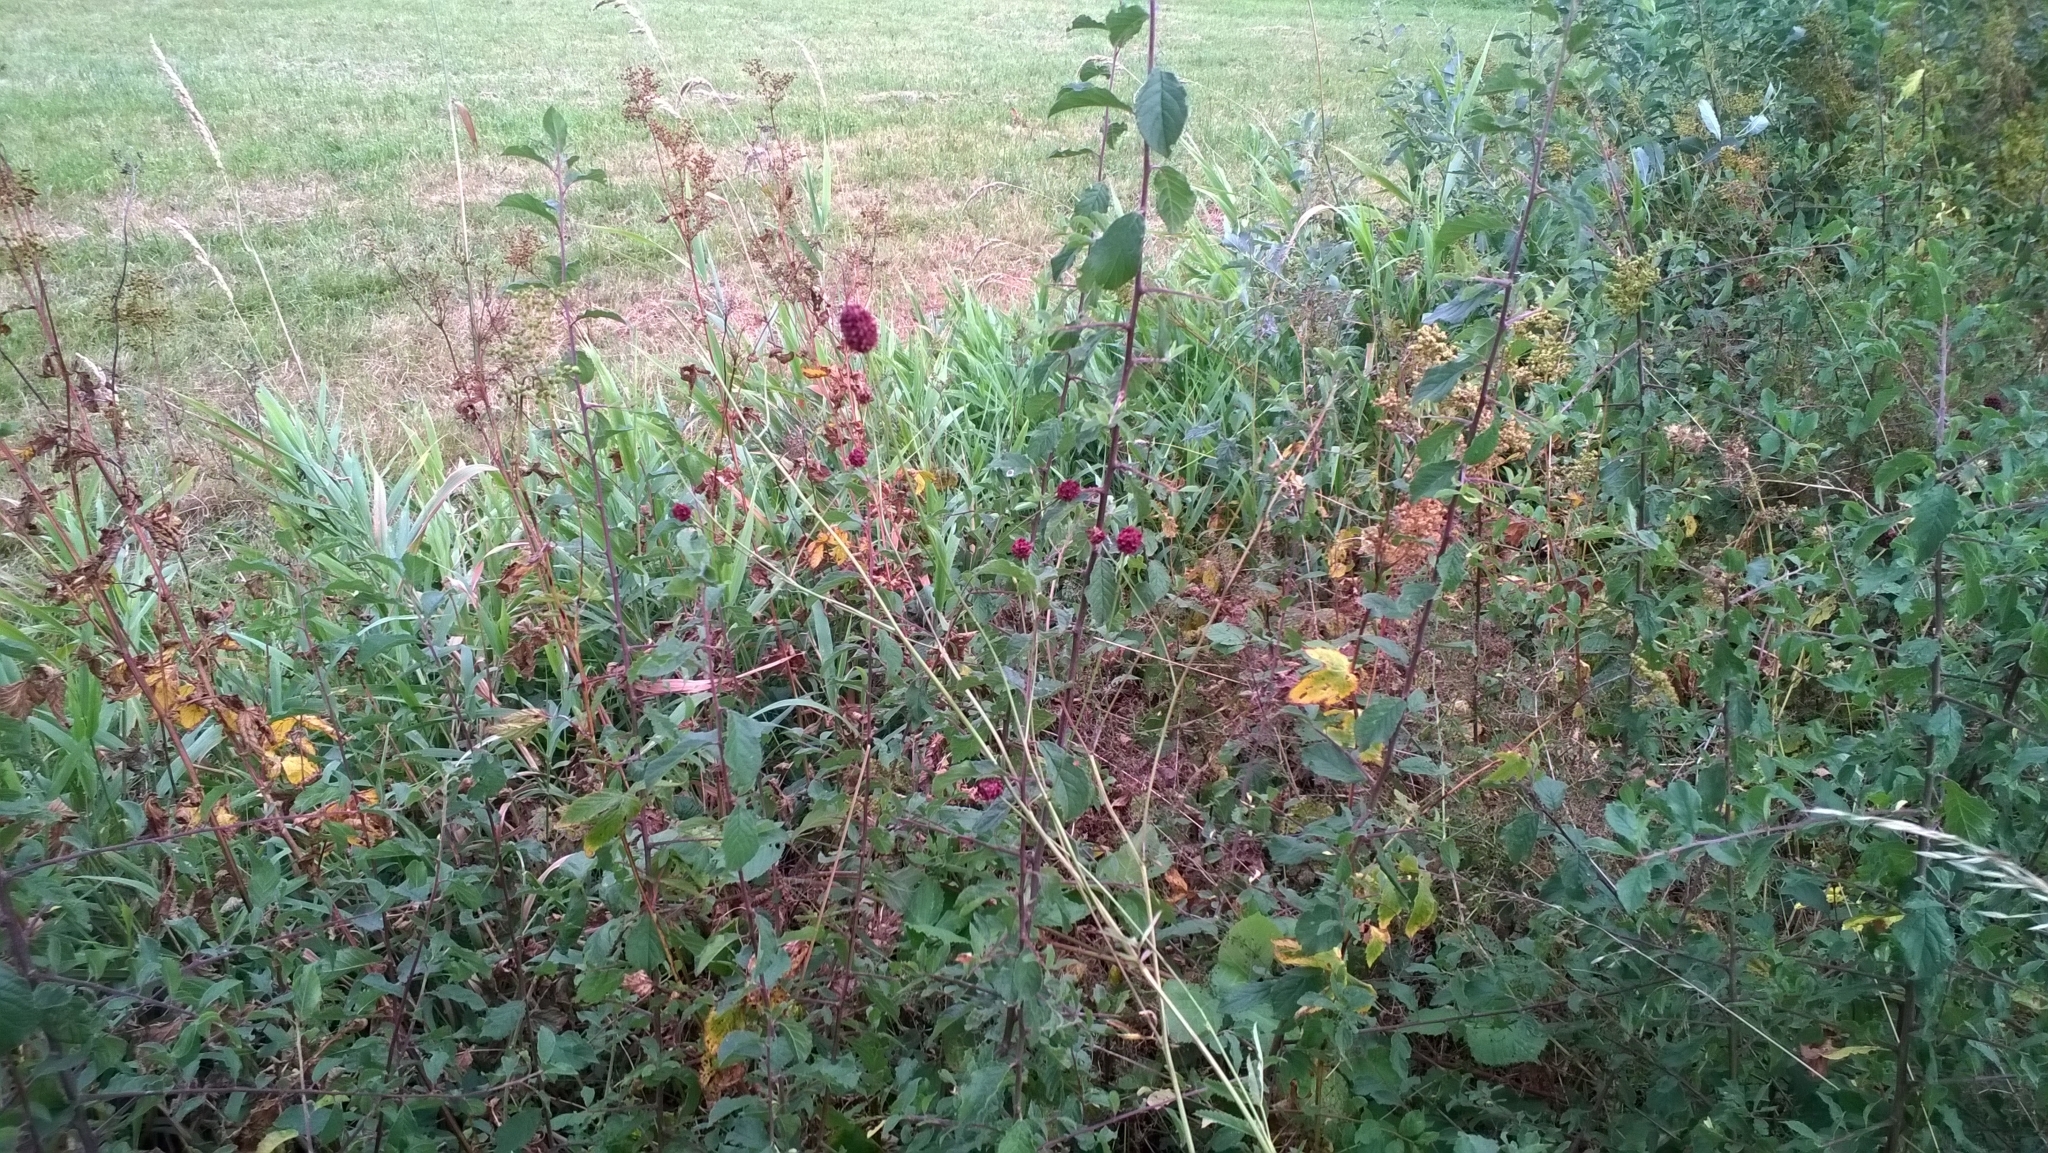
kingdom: Plantae
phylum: Tracheophyta
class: Magnoliopsida
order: Rosales
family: Rosaceae
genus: Sanguisorba
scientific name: Sanguisorba officinalis
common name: Great burnet
